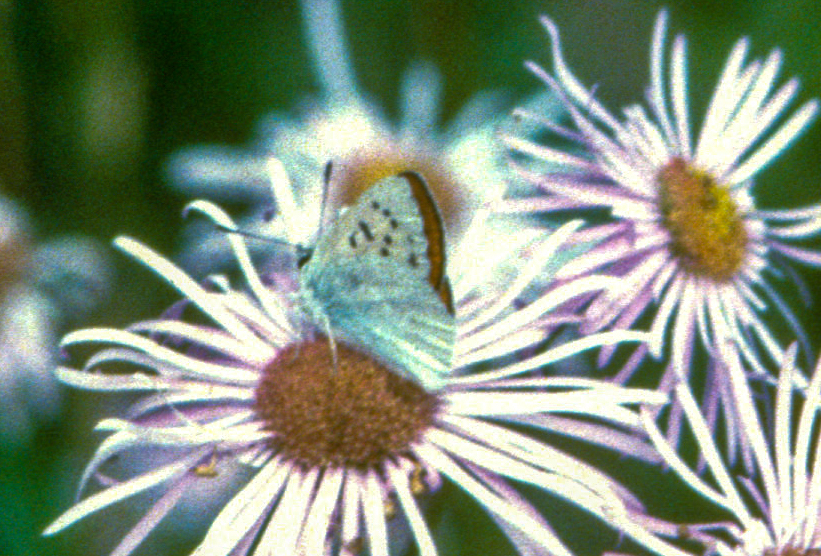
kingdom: Animalia
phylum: Arthropoda
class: Insecta
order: Lepidoptera
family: Lycaenidae
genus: Tharsalea
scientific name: Tharsalea rubidus
